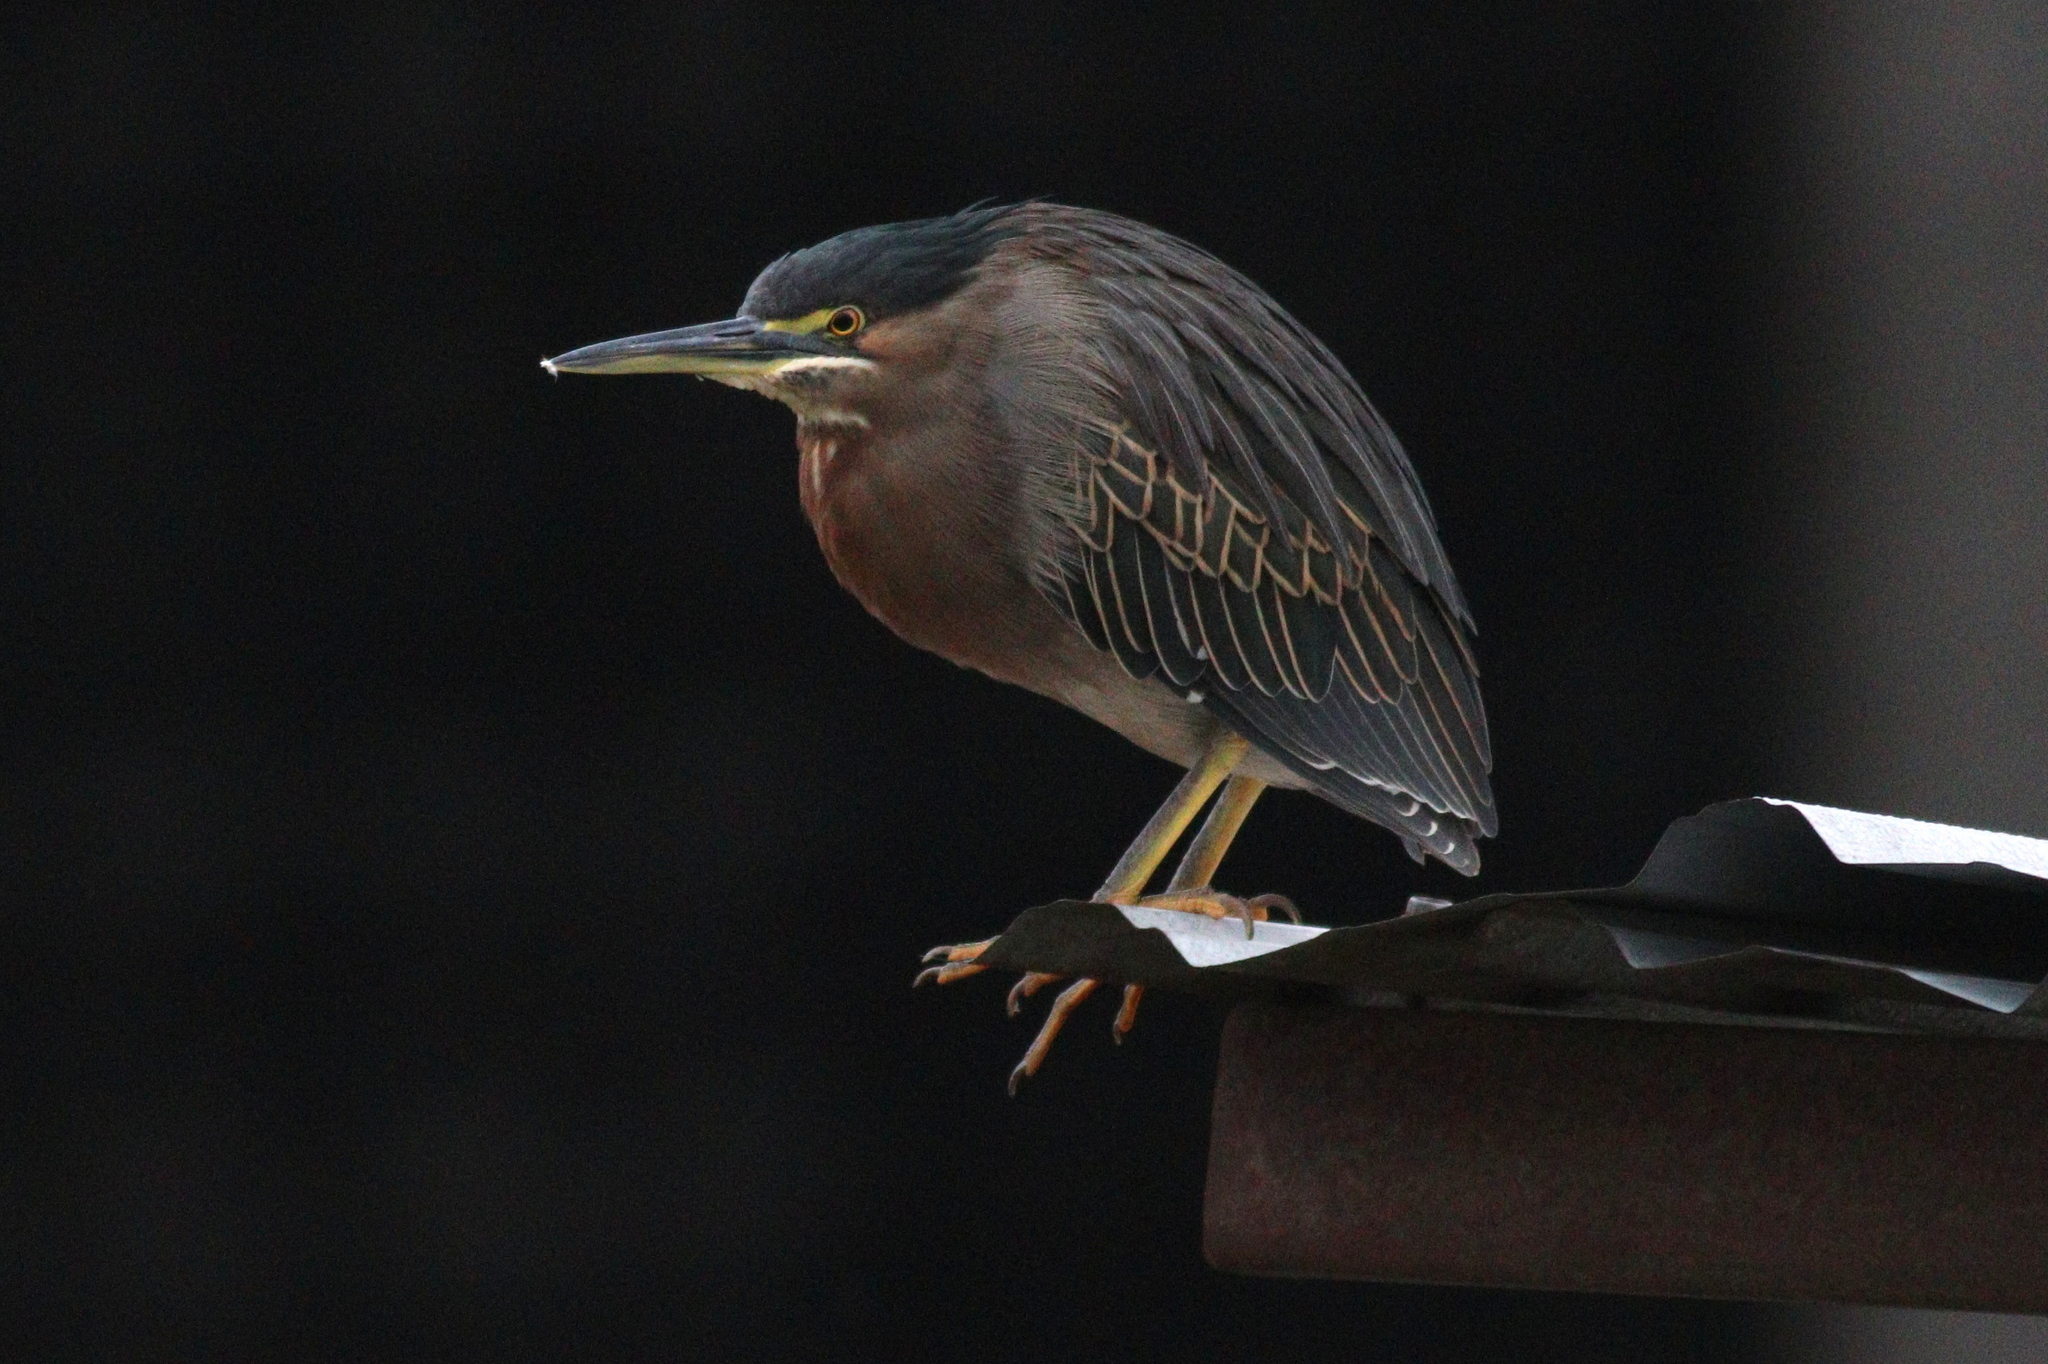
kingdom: Animalia
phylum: Chordata
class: Aves
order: Pelecaniformes
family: Ardeidae
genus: Butorides
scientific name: Butorides striata
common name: Striated heron
